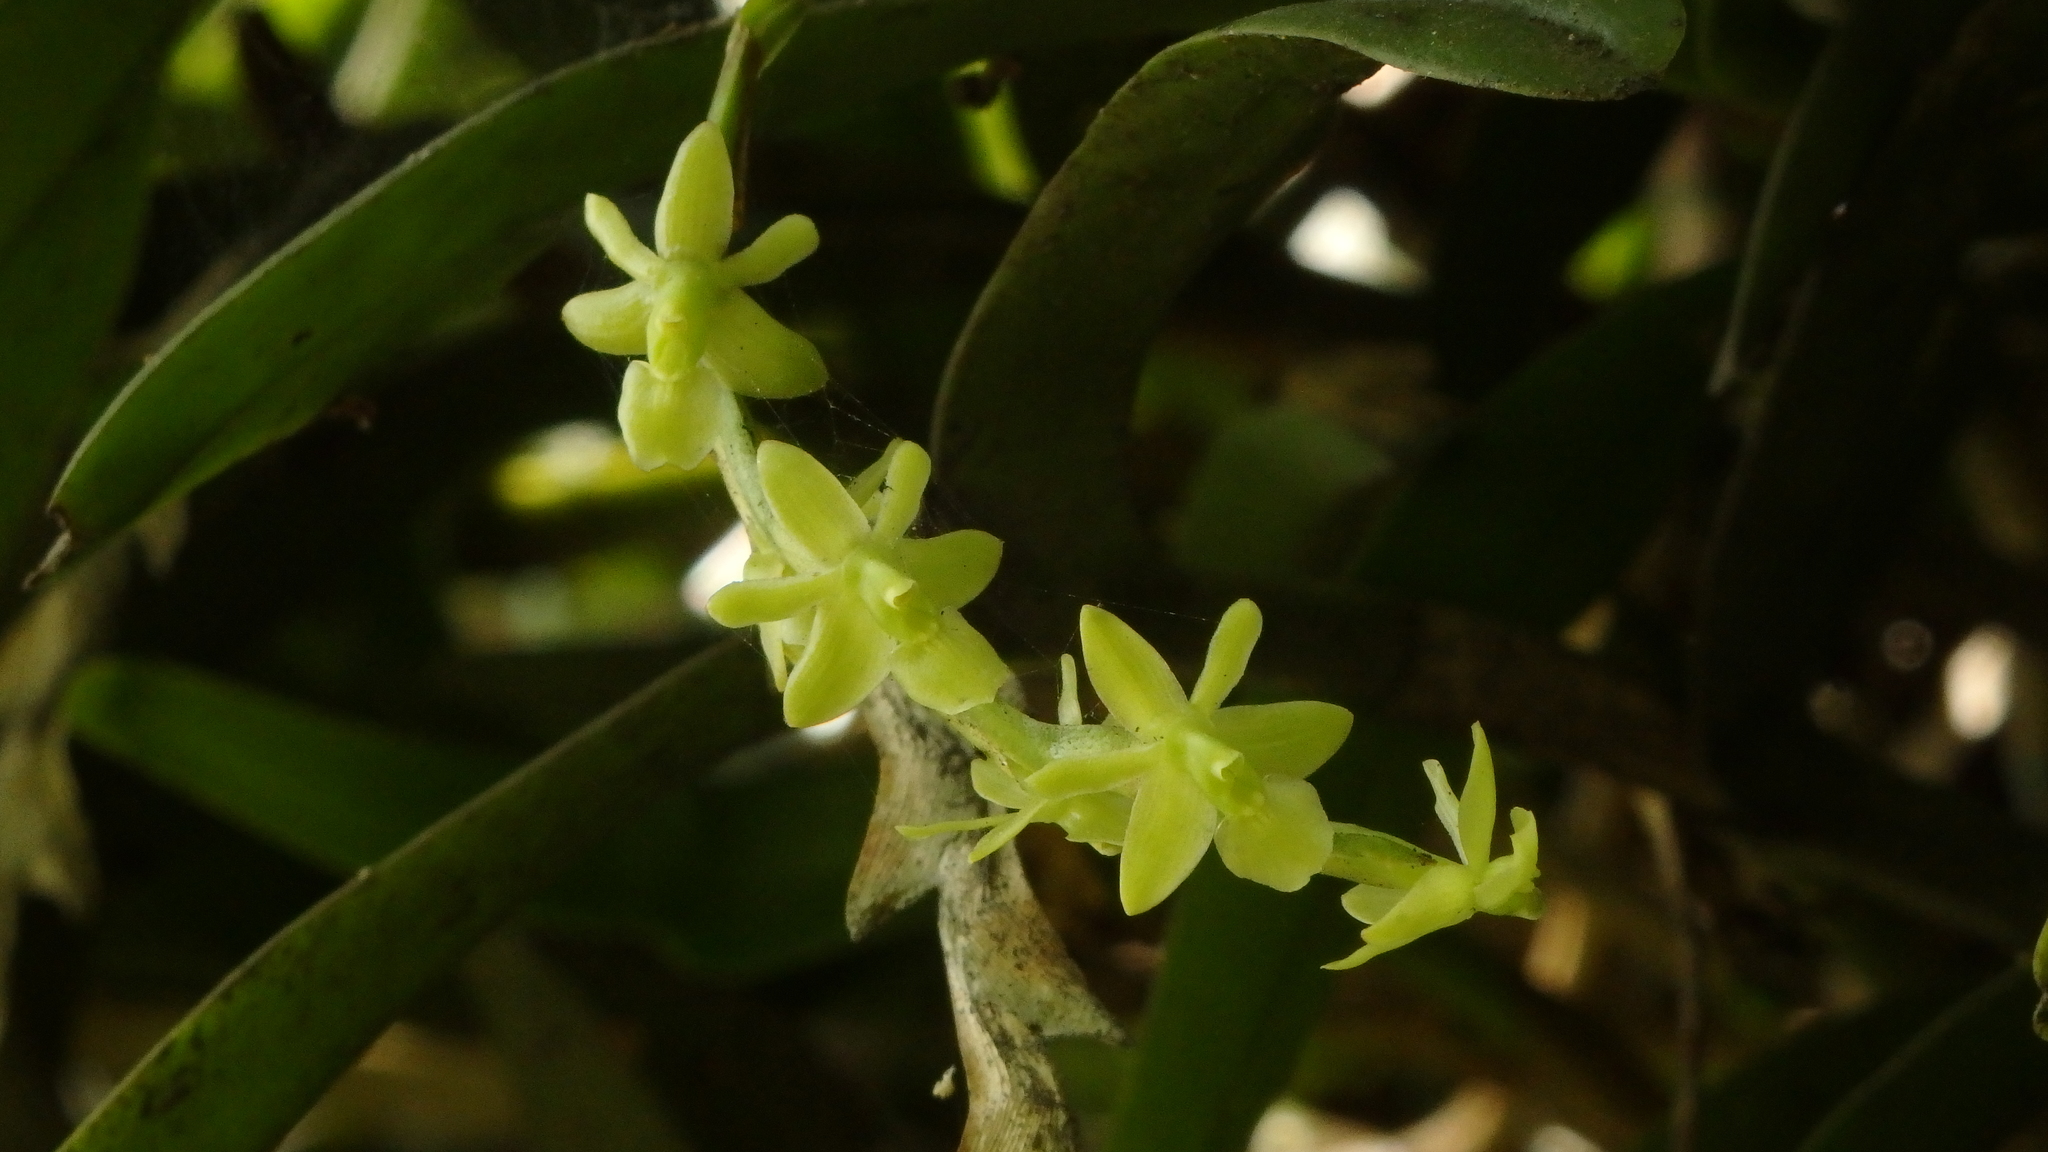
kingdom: Plantae
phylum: Tracheophyta
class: Liliopsida
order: Asparagales
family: Orchidaceae
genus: Epidendrum
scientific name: Epidendrum cardiophorum
